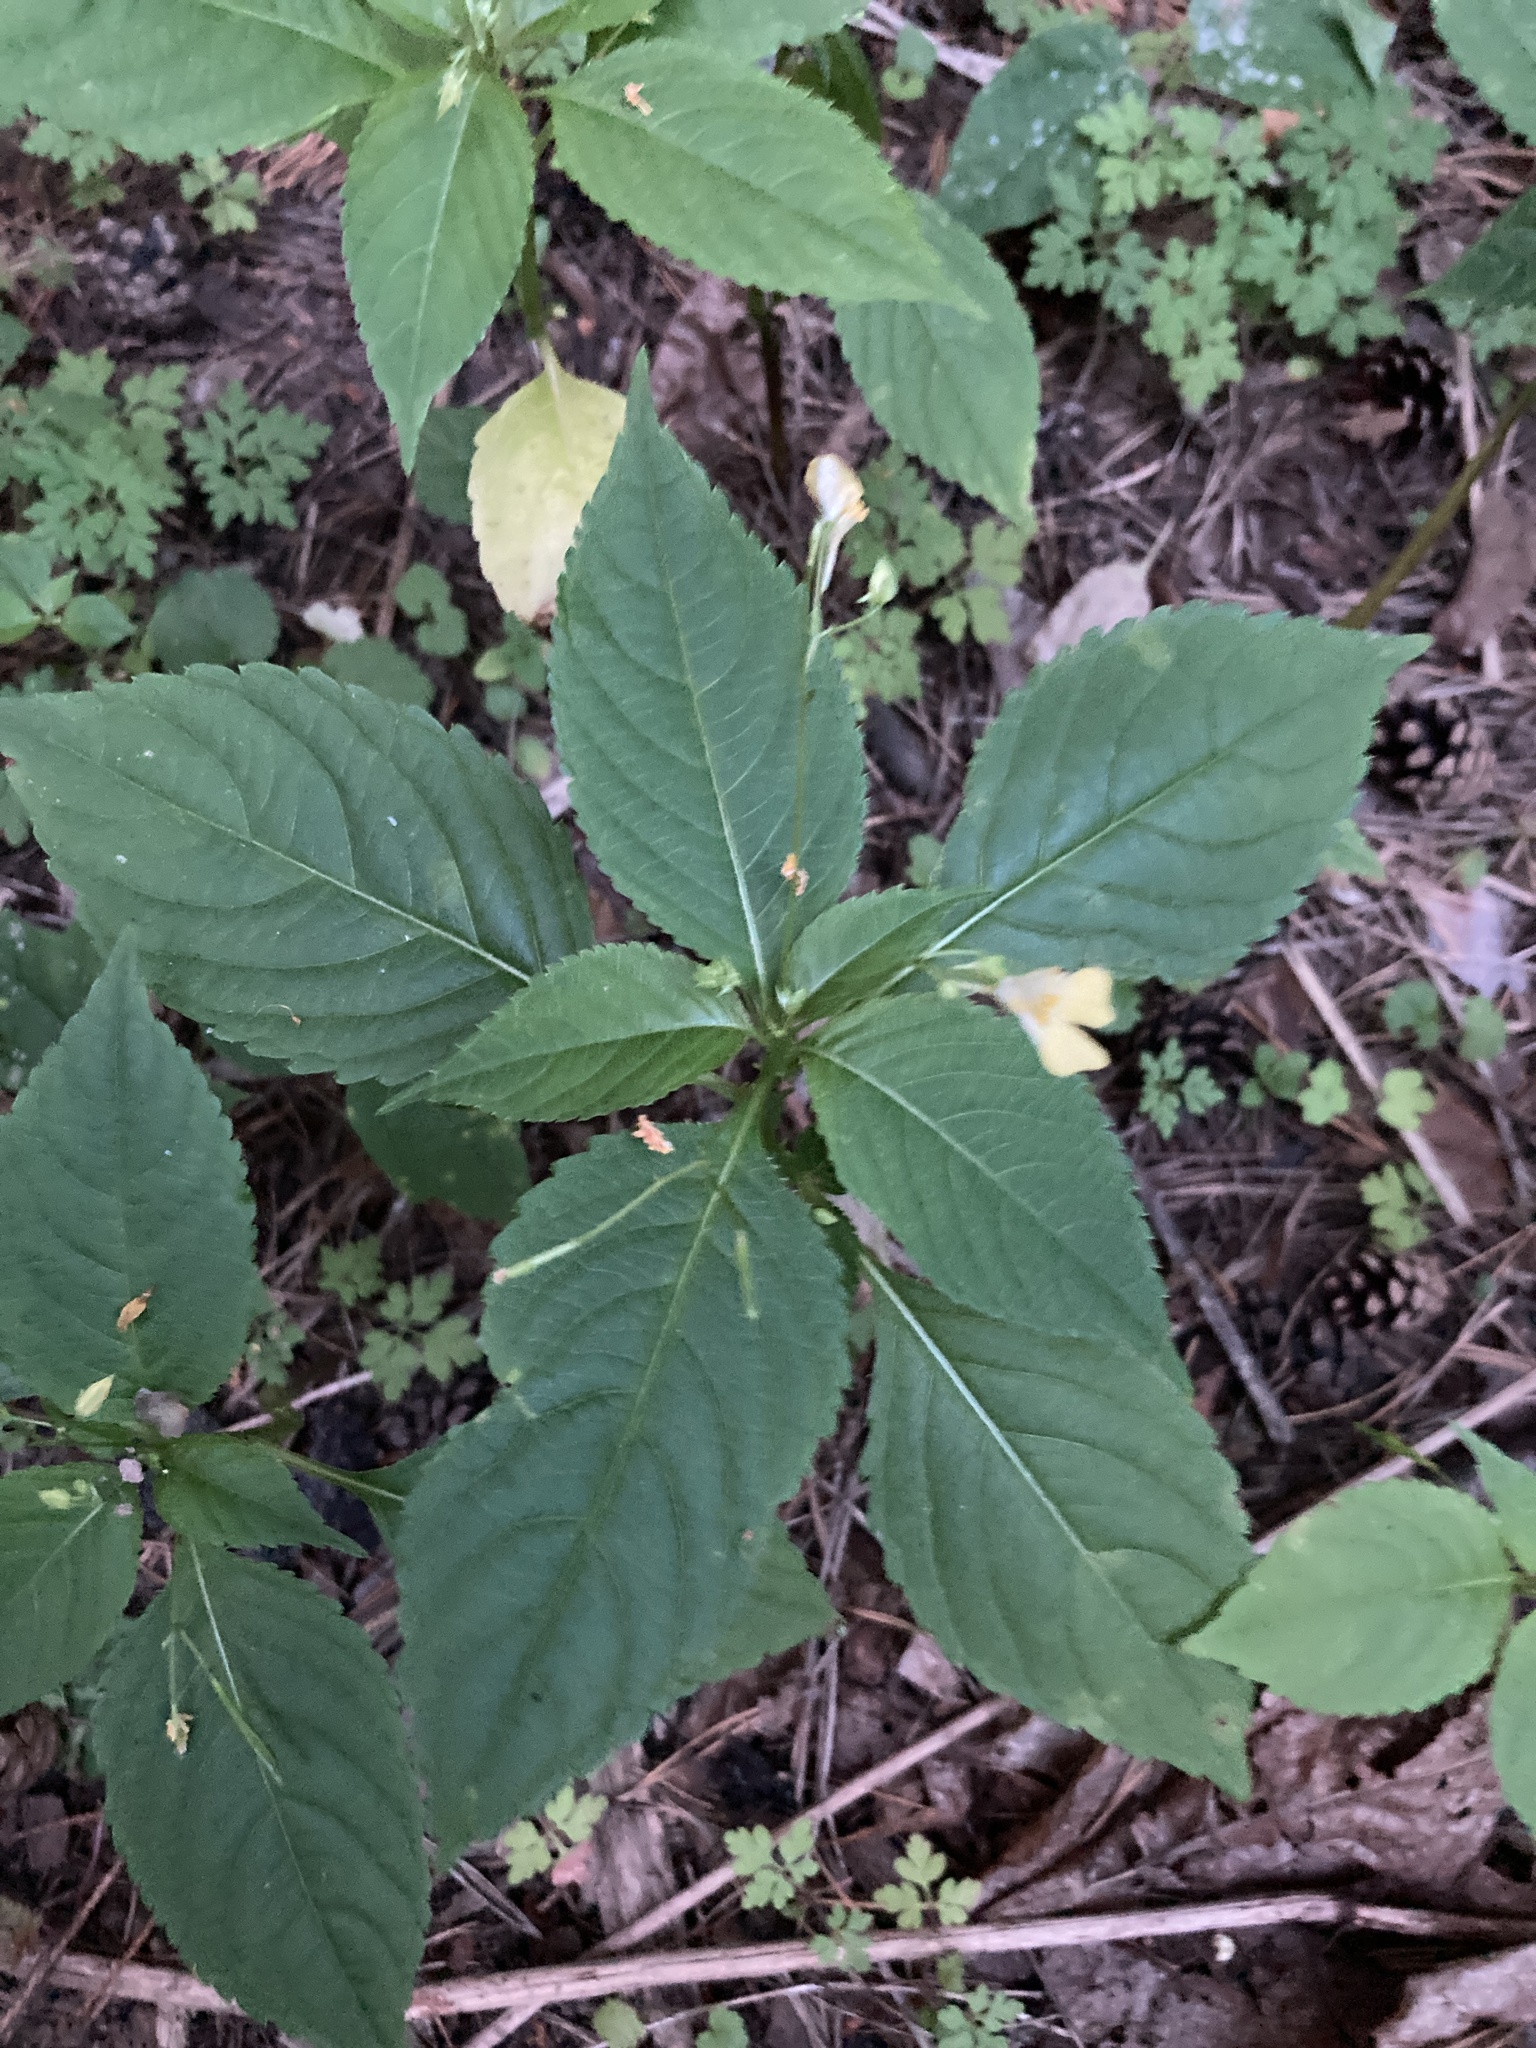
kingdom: Plantae
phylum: Tracheophyta
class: Magnoliopsida
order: Ericales
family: Balsaminaceae
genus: Impatiens
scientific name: Impatiens parviflora
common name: Small balsam
